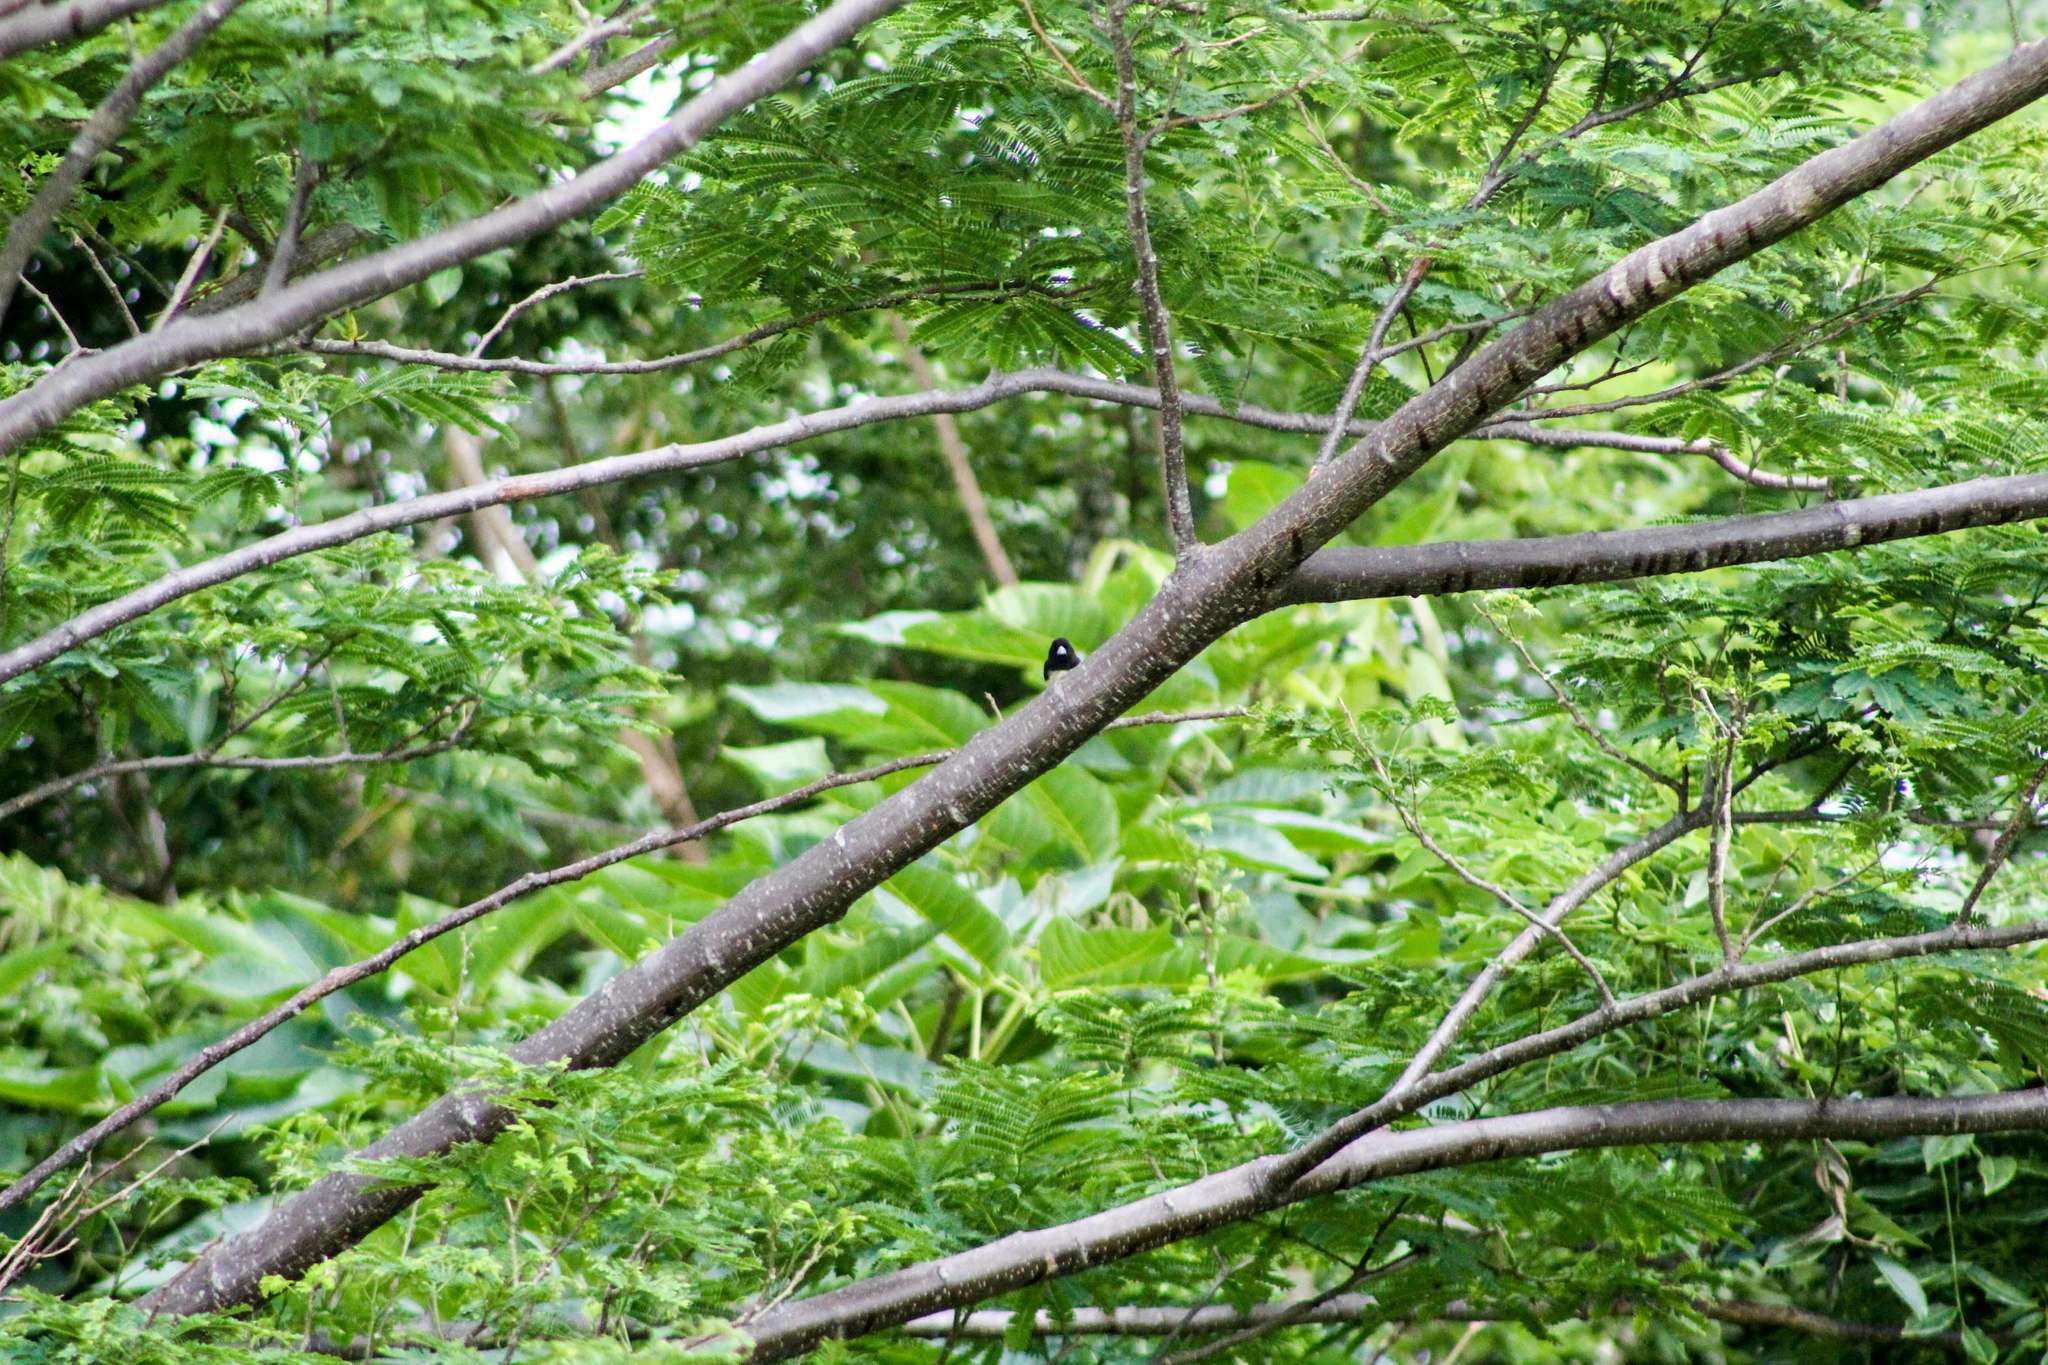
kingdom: Animalia
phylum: Chordata
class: Aves
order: Passeriformes
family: Thraupidae
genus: Sporophila
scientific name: Sporophila nigricollis
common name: Yellow-bellied seedeater
